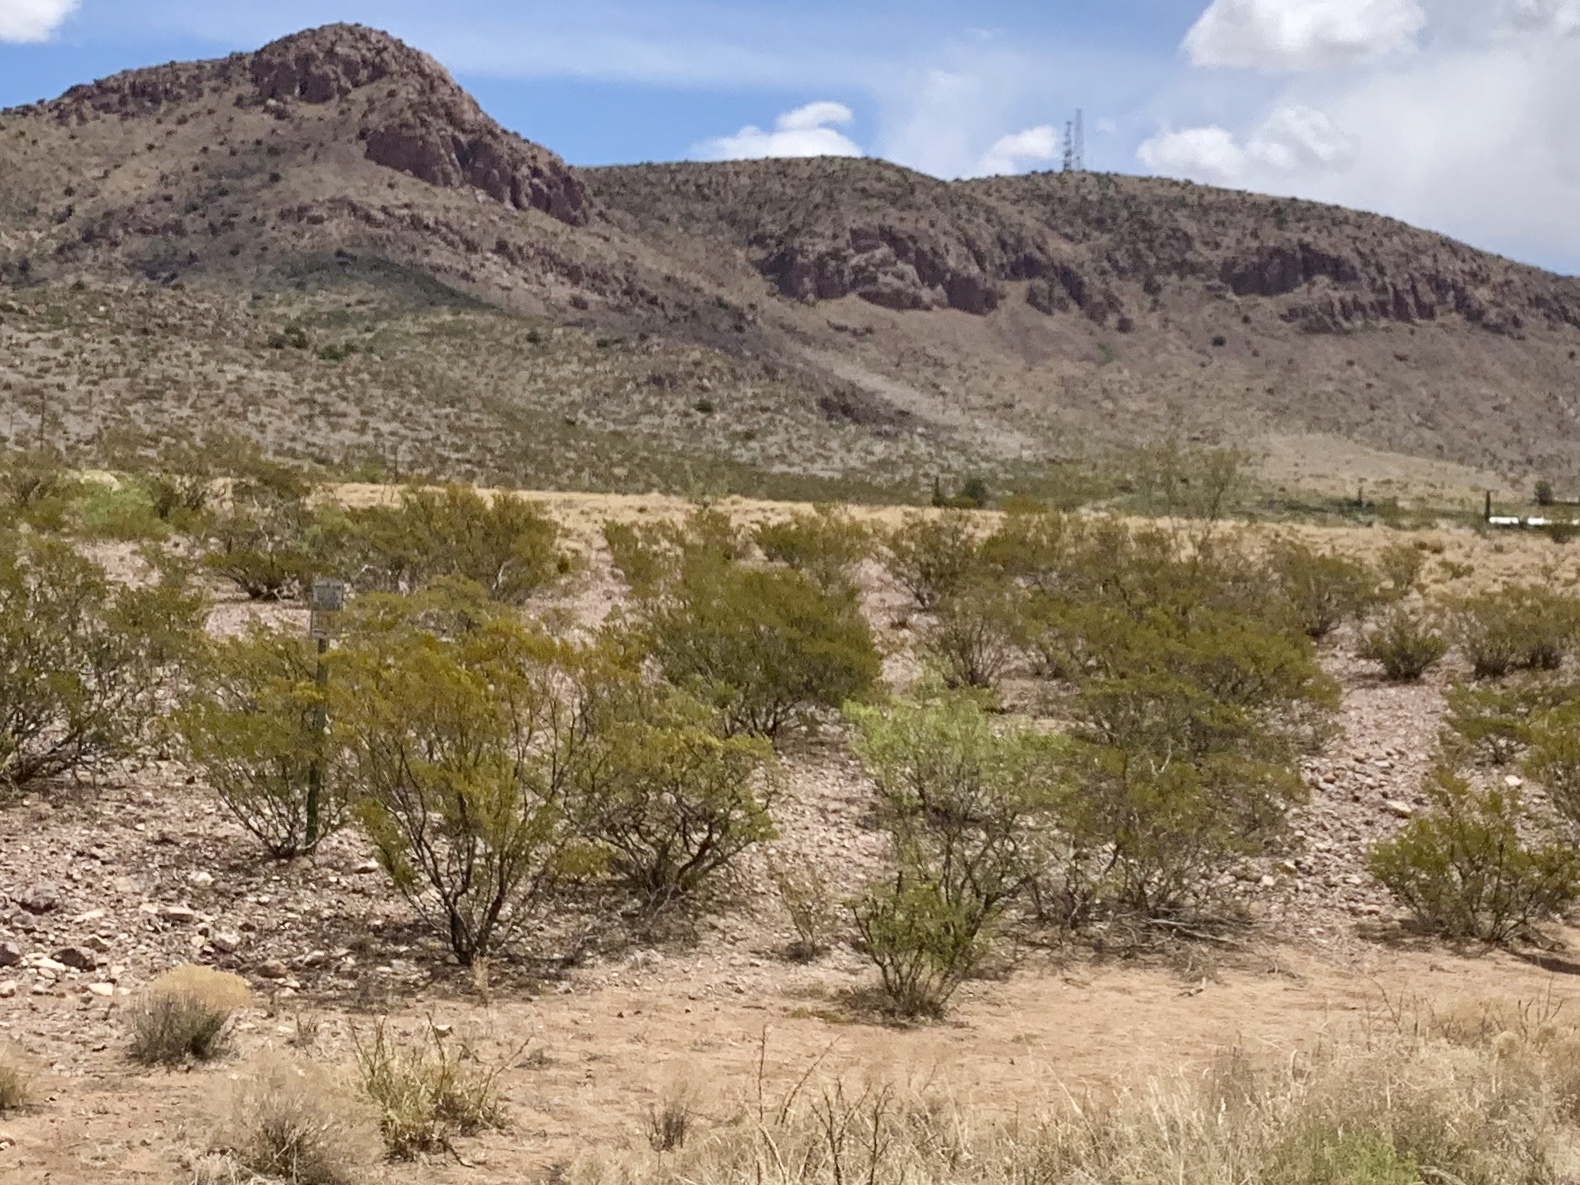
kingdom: Plantae
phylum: Tracheophyta
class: Magnoliopsida
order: Zygophyllales
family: Zygophyllaceae
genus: Larrea
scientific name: Larrea tridentata
